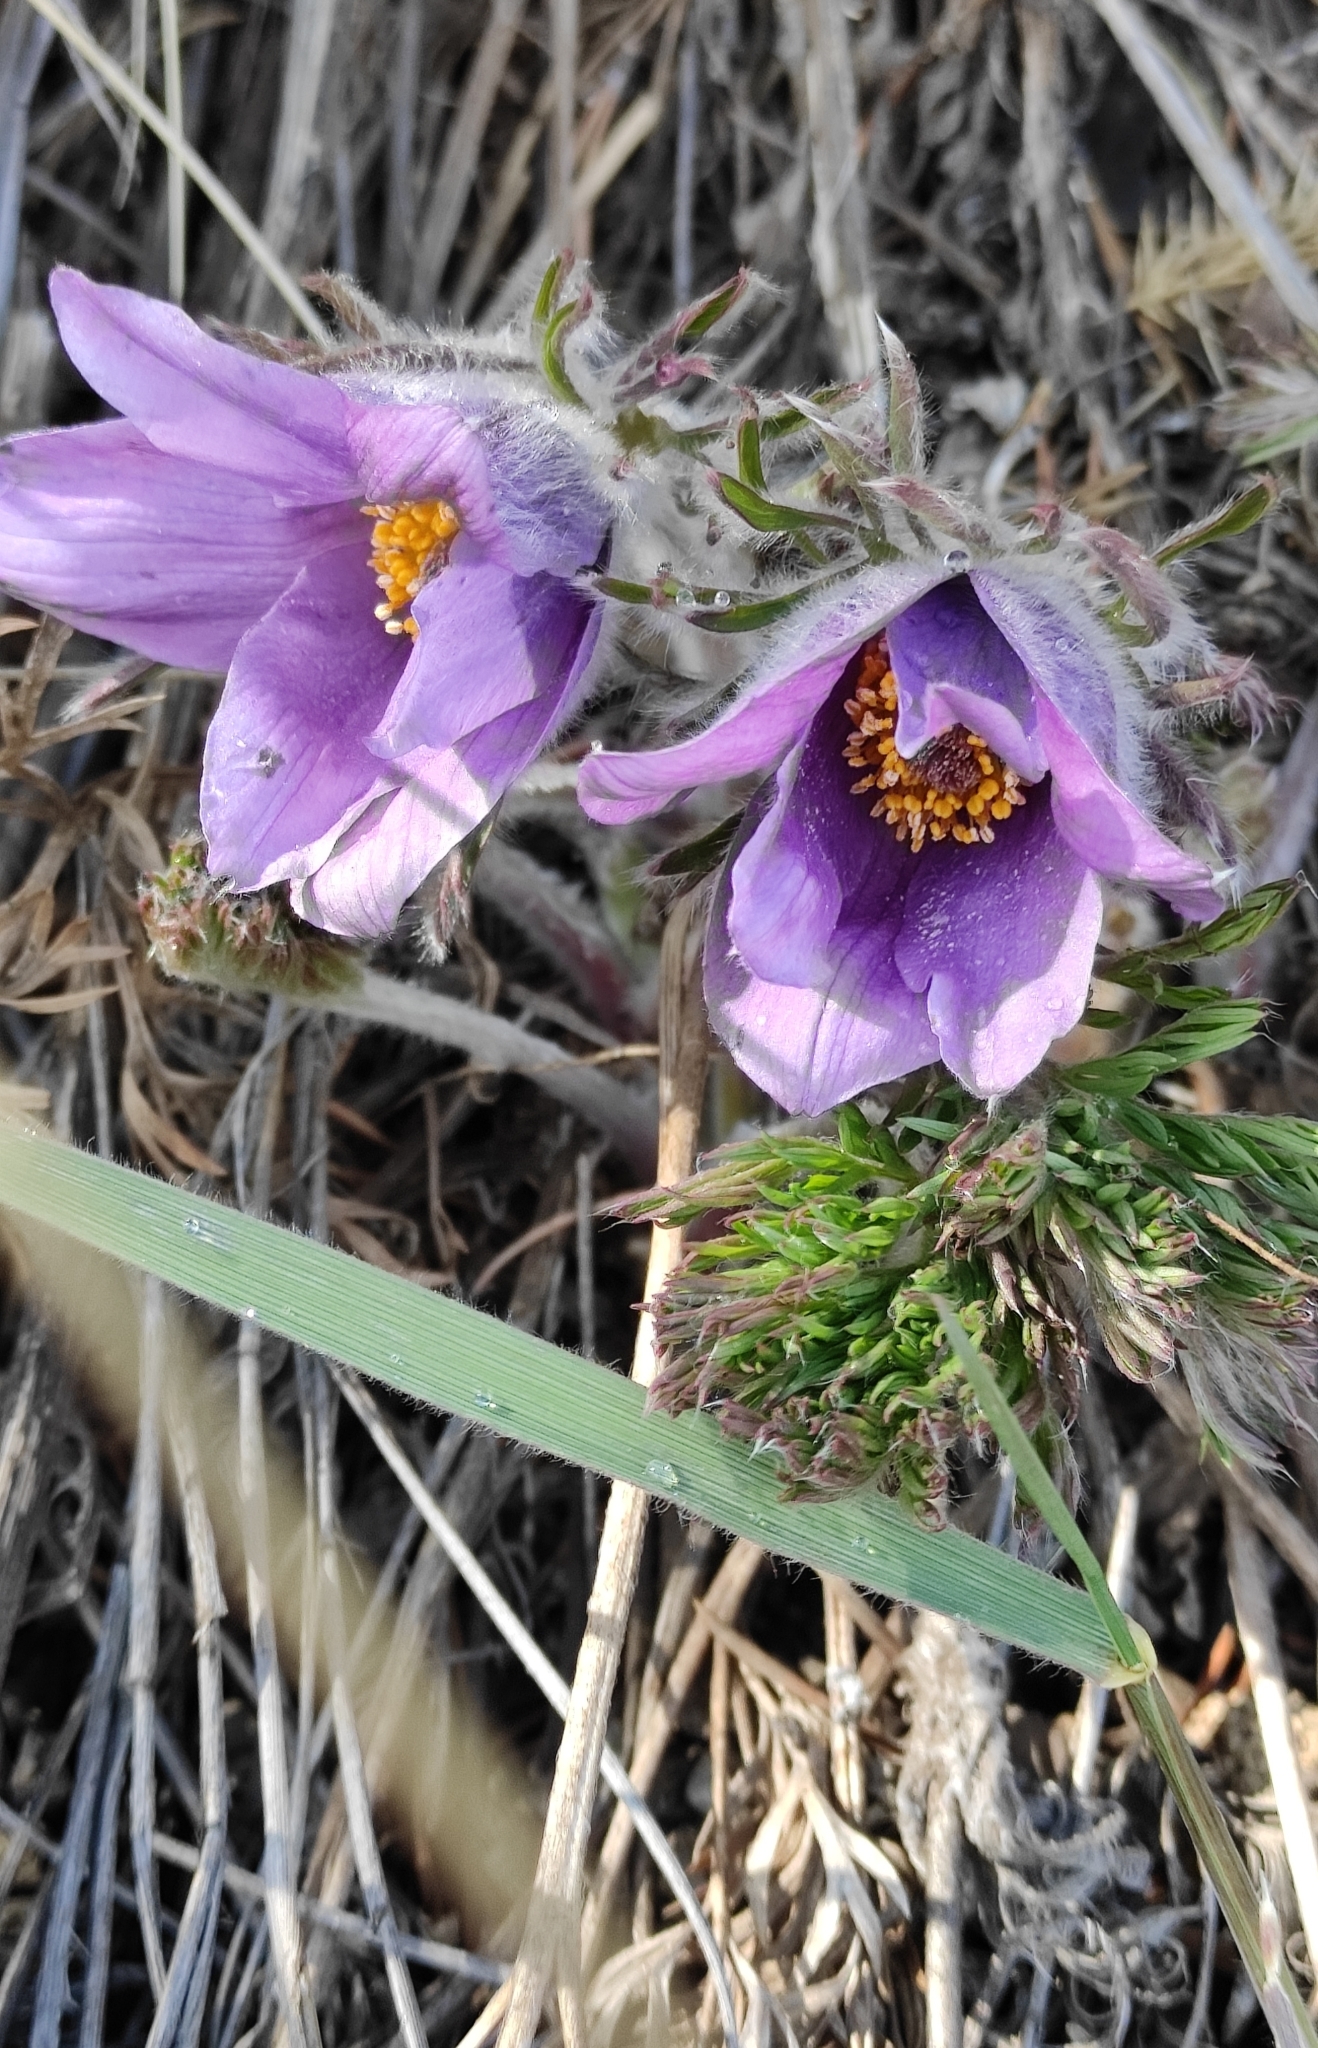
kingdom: Plantae
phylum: Tracheophyta
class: Magnoliopsida
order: Ranunculales
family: Ranunculaceae
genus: Pulsatilla
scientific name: Pulsatilla turczaninovii
